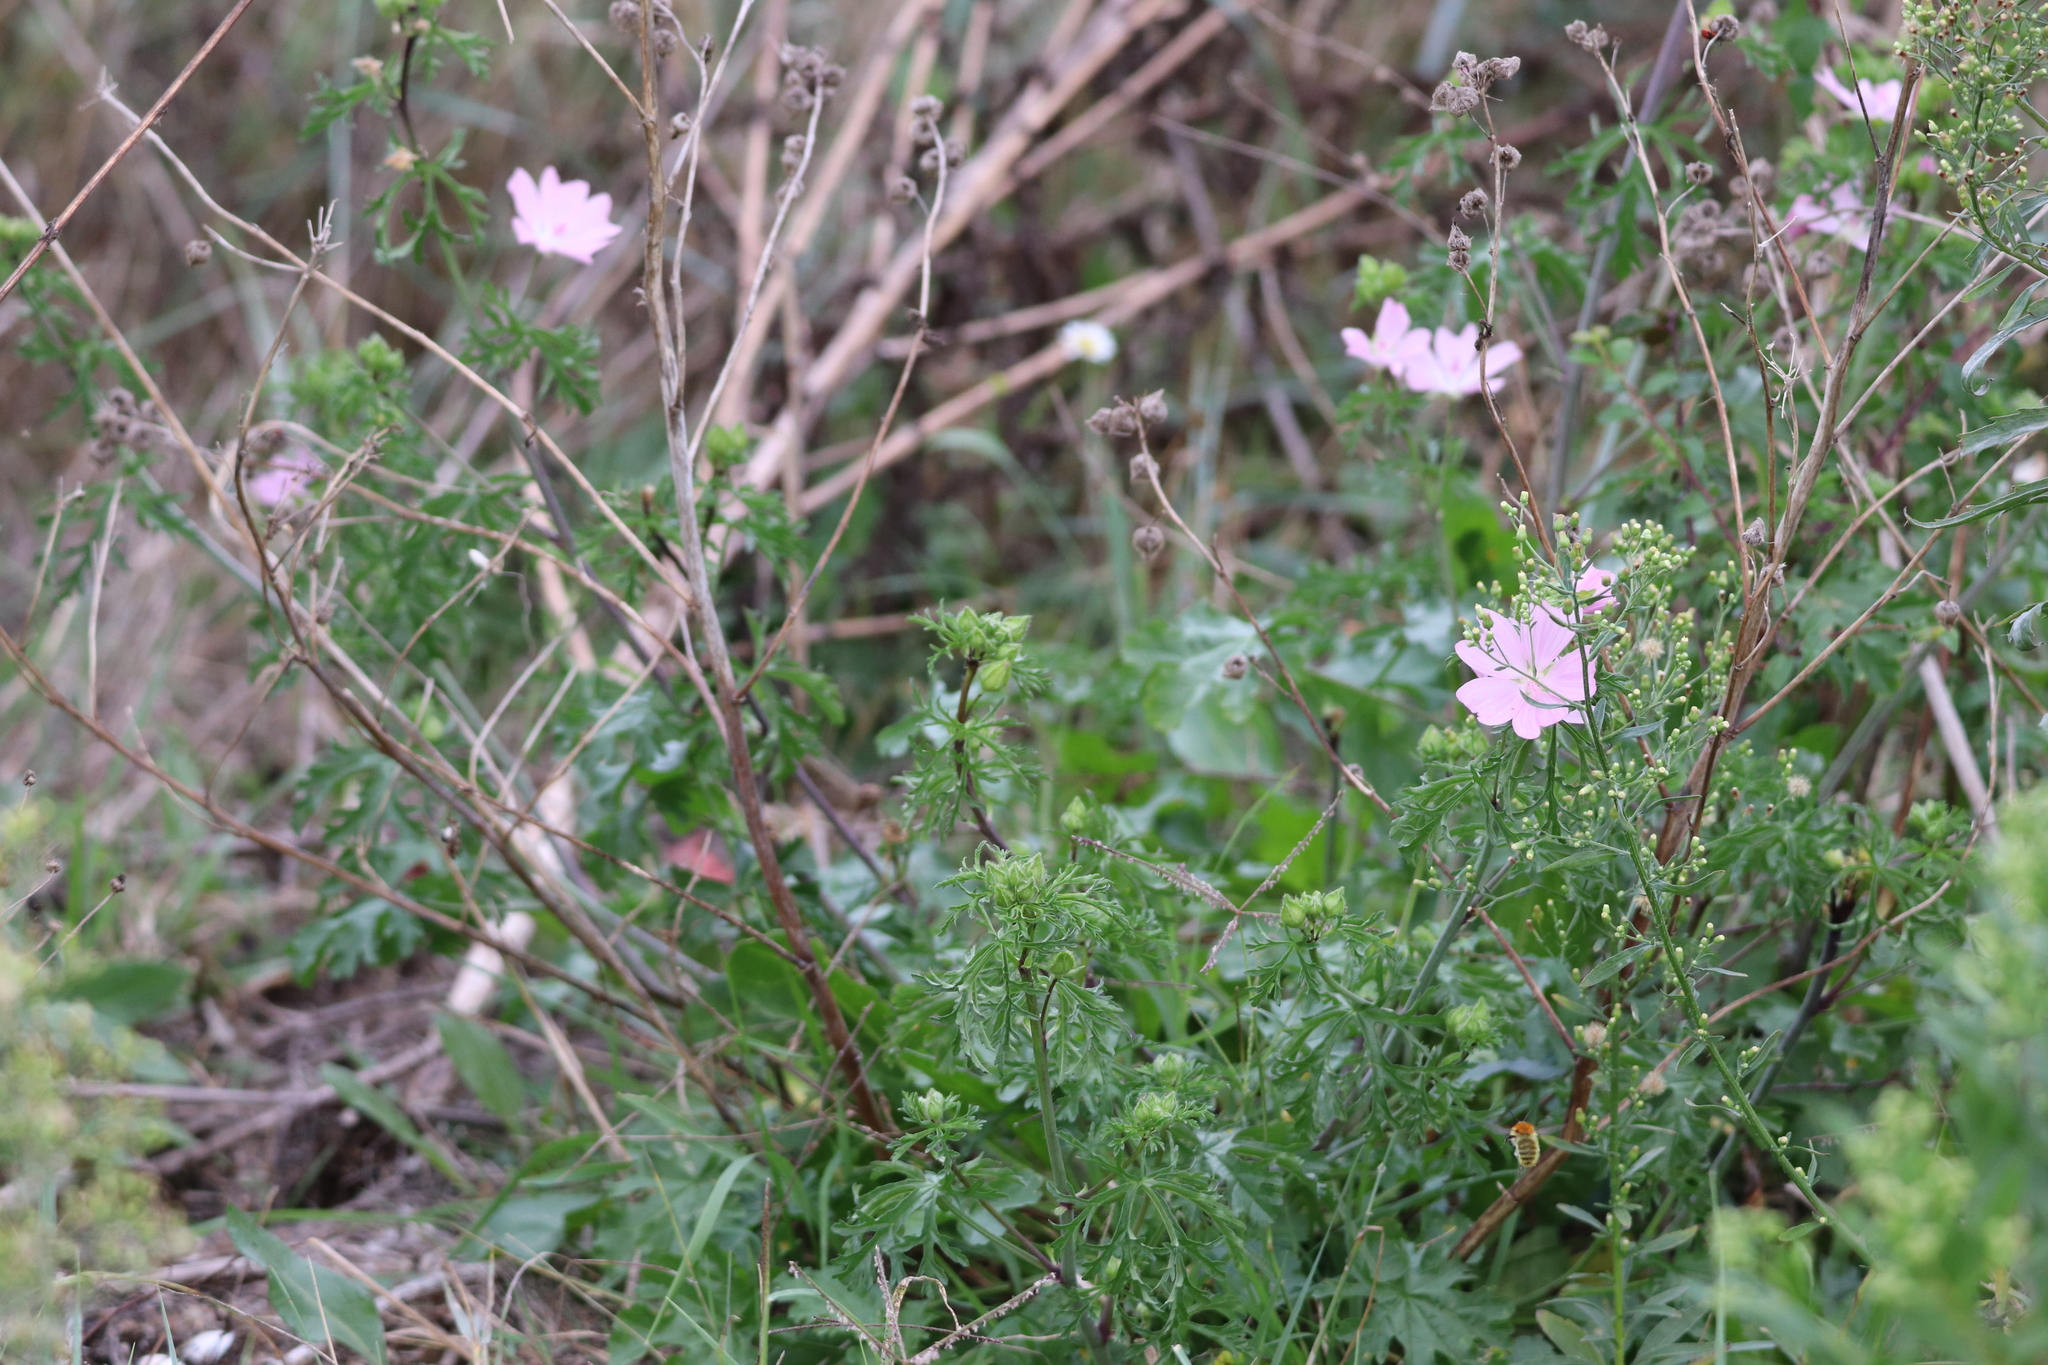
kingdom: Plantae
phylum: Tracheophyta
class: Magnoliopsida
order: Malvales
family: Malvaceae
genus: Malva
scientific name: Malva moschata
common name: Musk mallow
